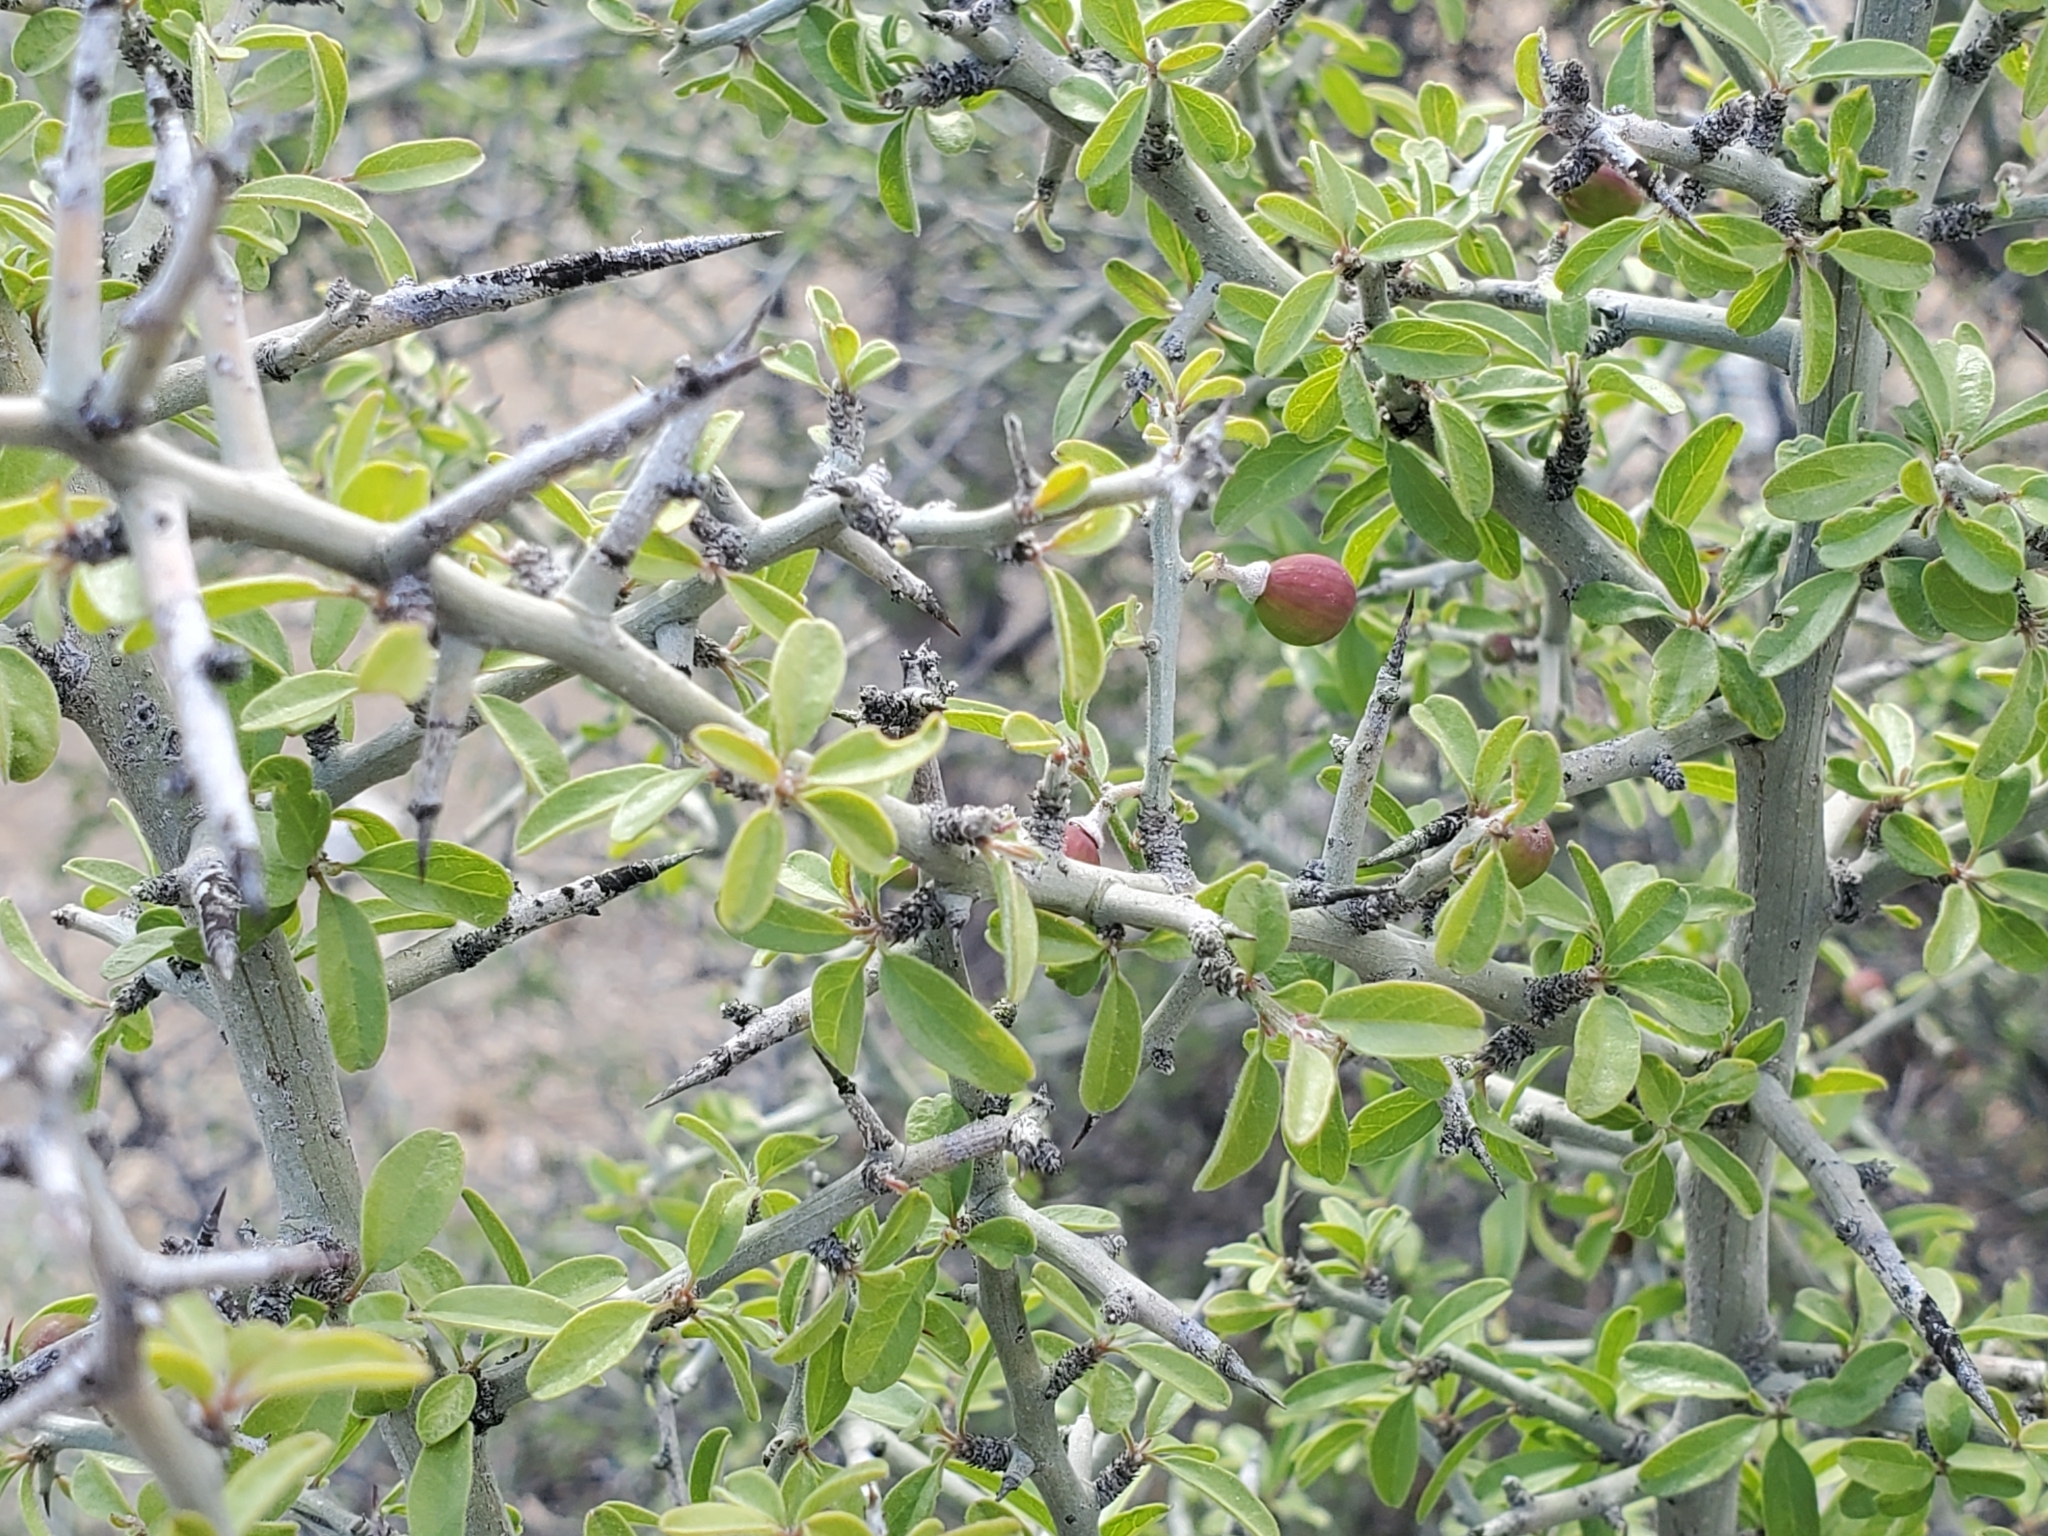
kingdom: Plantae
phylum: Tracheophyta
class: Magnoliopsida
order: Rosales
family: Rhamnaceae
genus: Sarcomphalus
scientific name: Sarcomphalus obtusifolius
